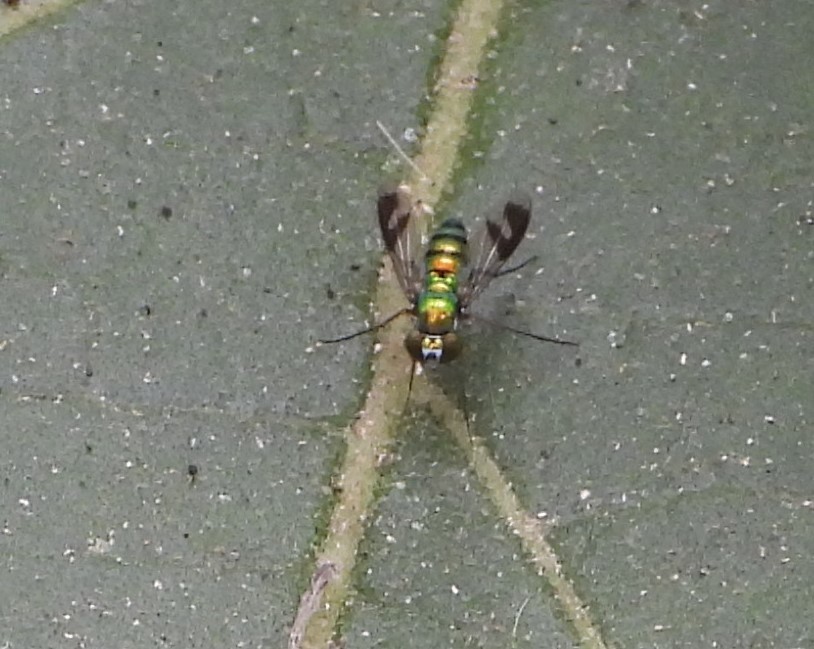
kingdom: Animalia
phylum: Arthropoda
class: Insecta
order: Diptera
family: Dolichopodidae
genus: Condylostylus
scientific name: Condylostylus quadricolor
